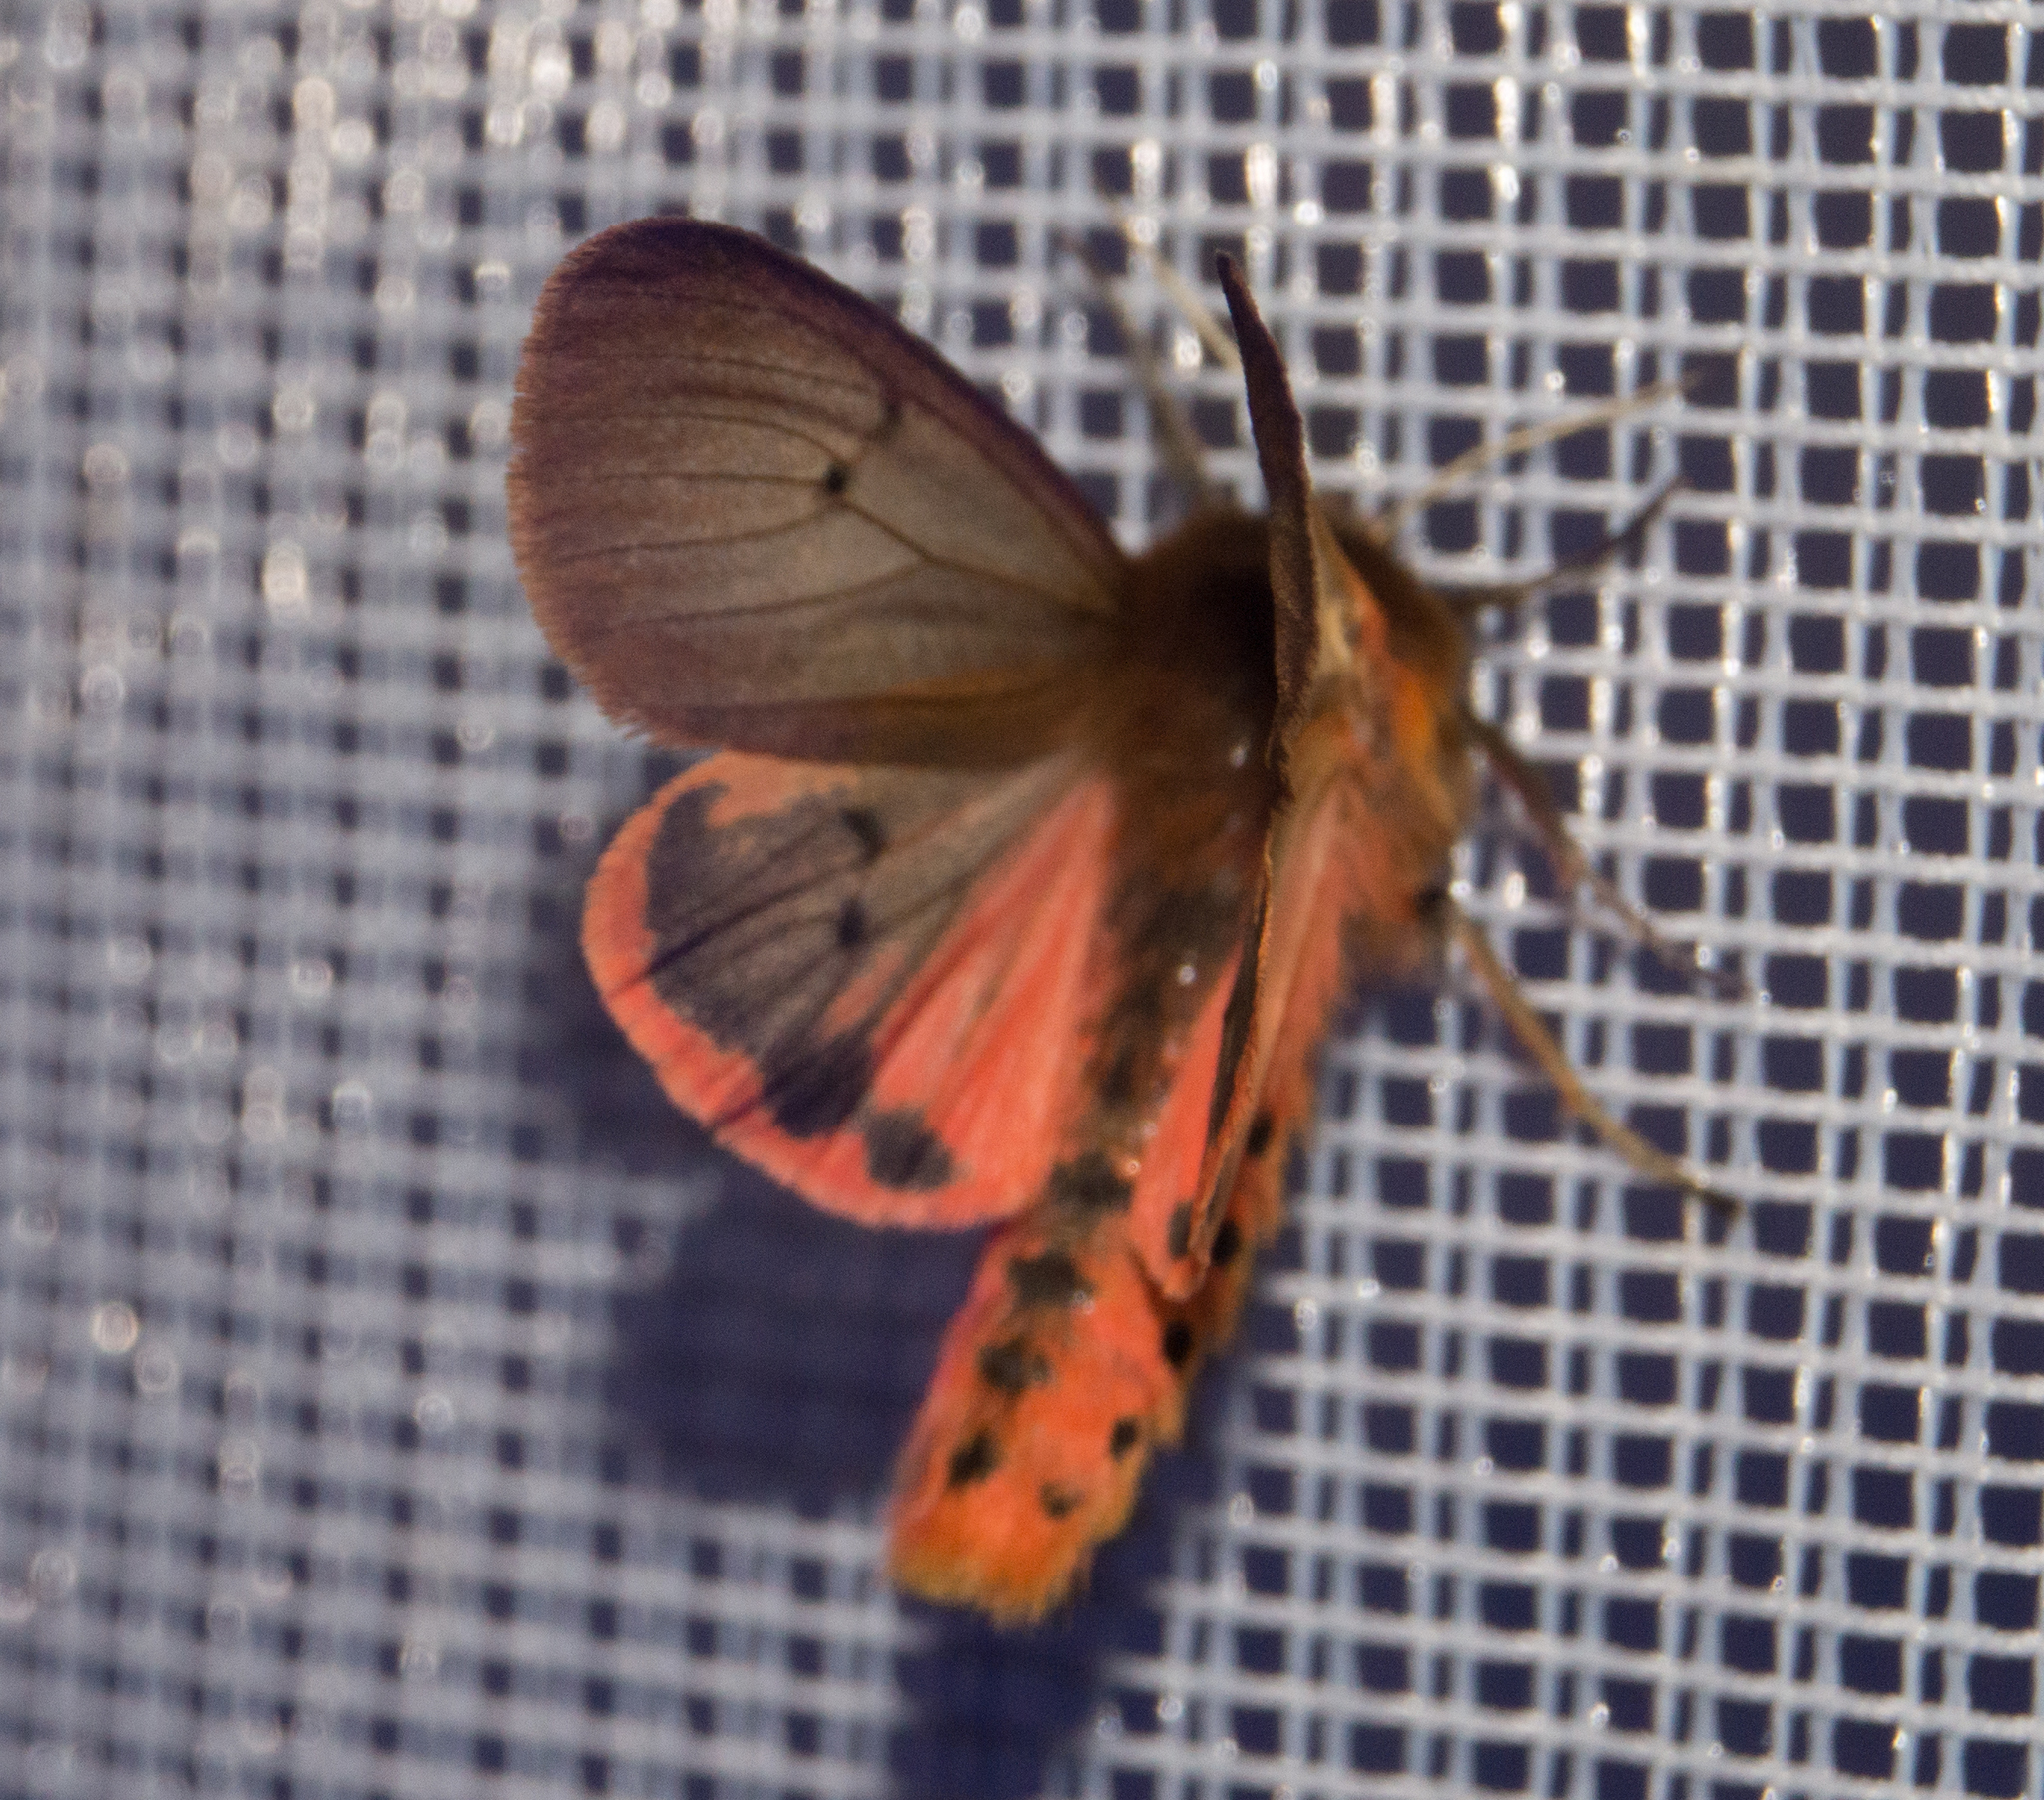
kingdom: Animalia
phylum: Arthropoda
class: Insecta
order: Lepidoptera
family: Erebidae
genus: Phragmatobia
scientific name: Phragmatobia fuliginosa
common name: Ruby tiger
